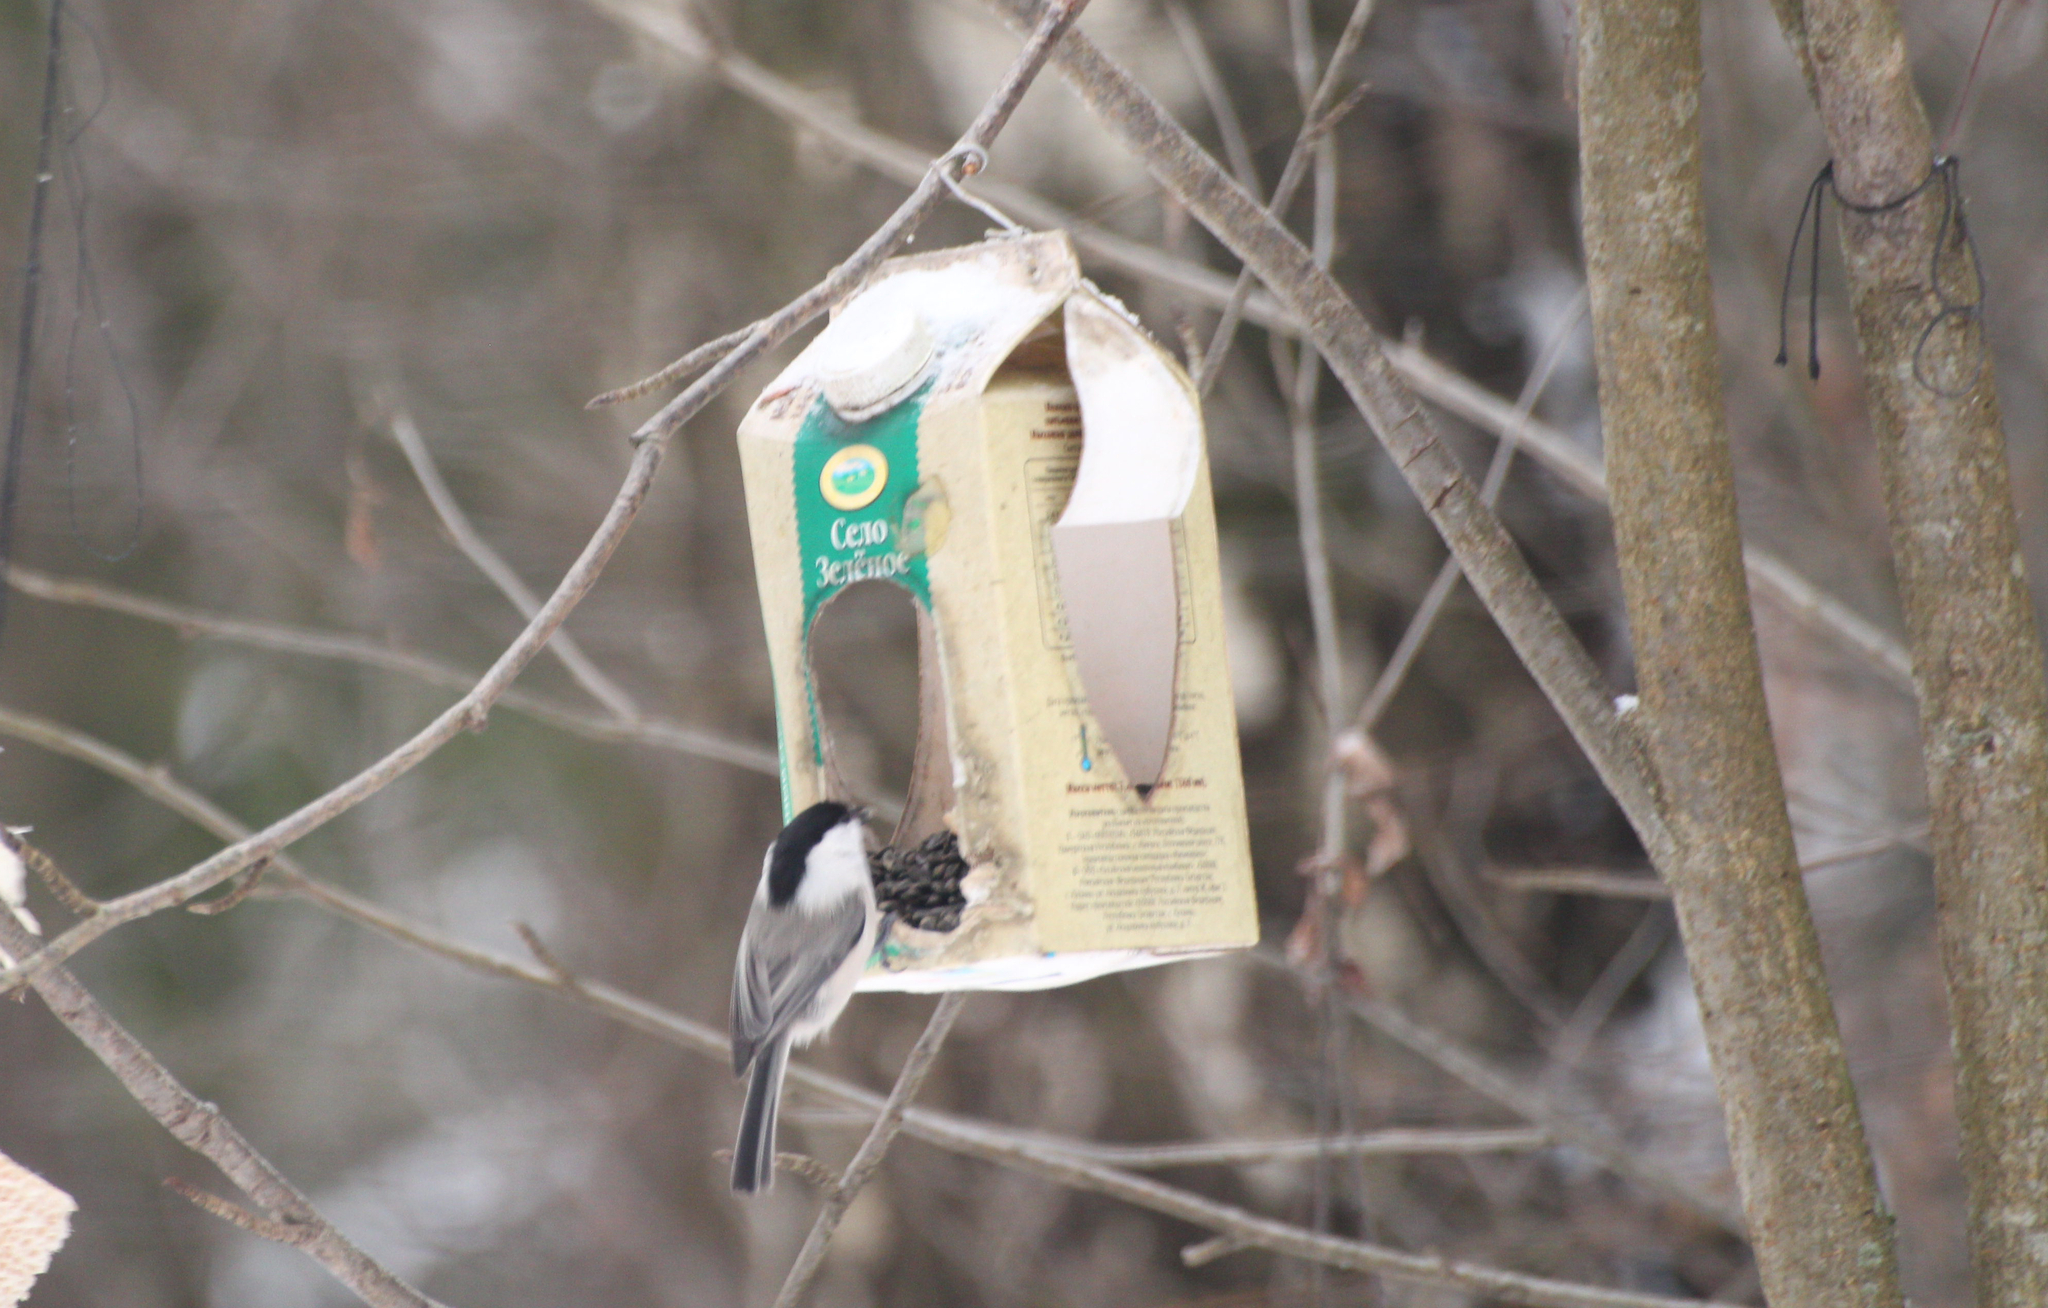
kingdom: Animalia
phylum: Chordata
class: Aves
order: Passeriformes
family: Paridae
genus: Poecile
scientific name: Poecile montanus
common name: Willow tit
